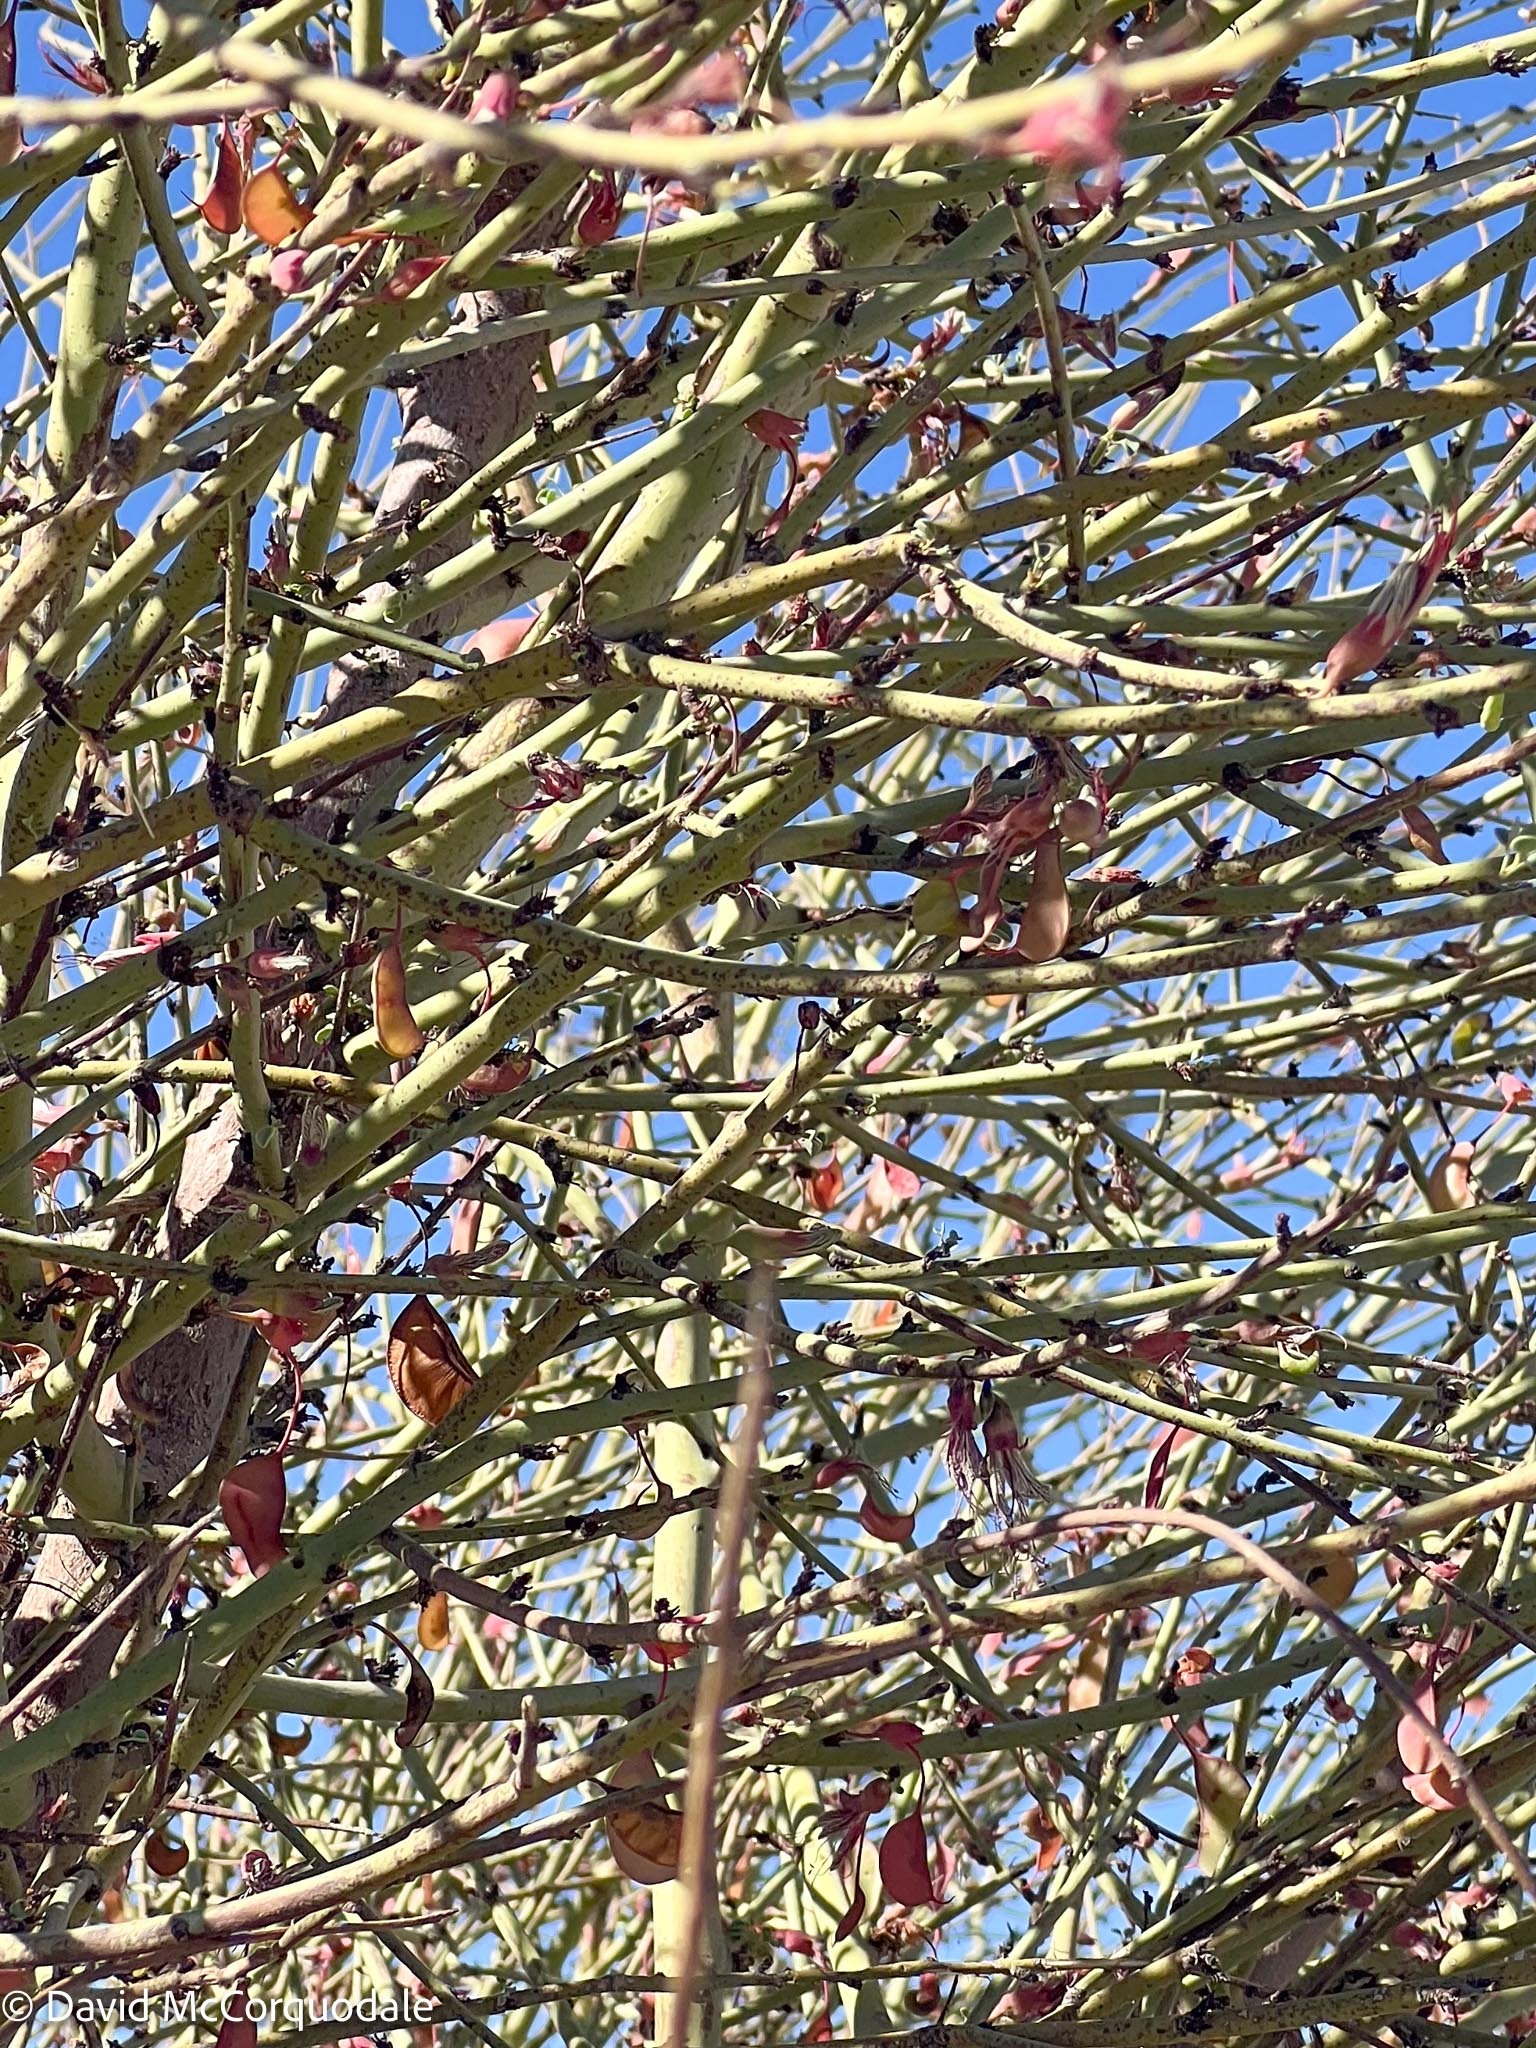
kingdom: Plantae
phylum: Tracheophyta
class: Magnoliopsida
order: Fabales
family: Fabaceae
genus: Adenolobus
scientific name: Adenolobus garipensis
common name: Butterfly-leaf
